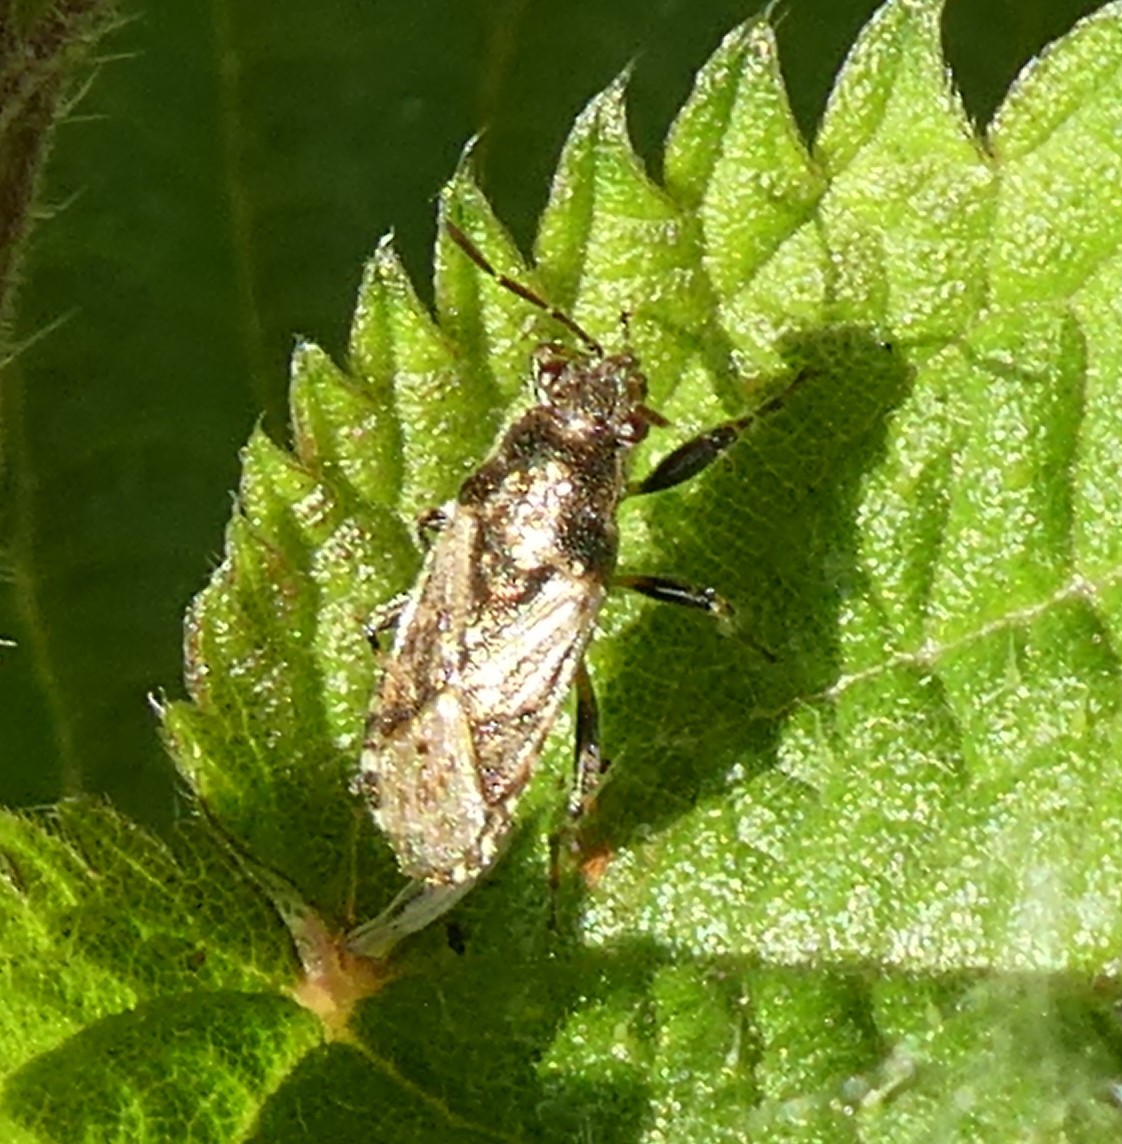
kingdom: Animalia
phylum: Arthropoda
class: Insecta
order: Hemiptera
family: Heterogastridae
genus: Heterogaster
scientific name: Heterogaster urticae
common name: Seed bug
